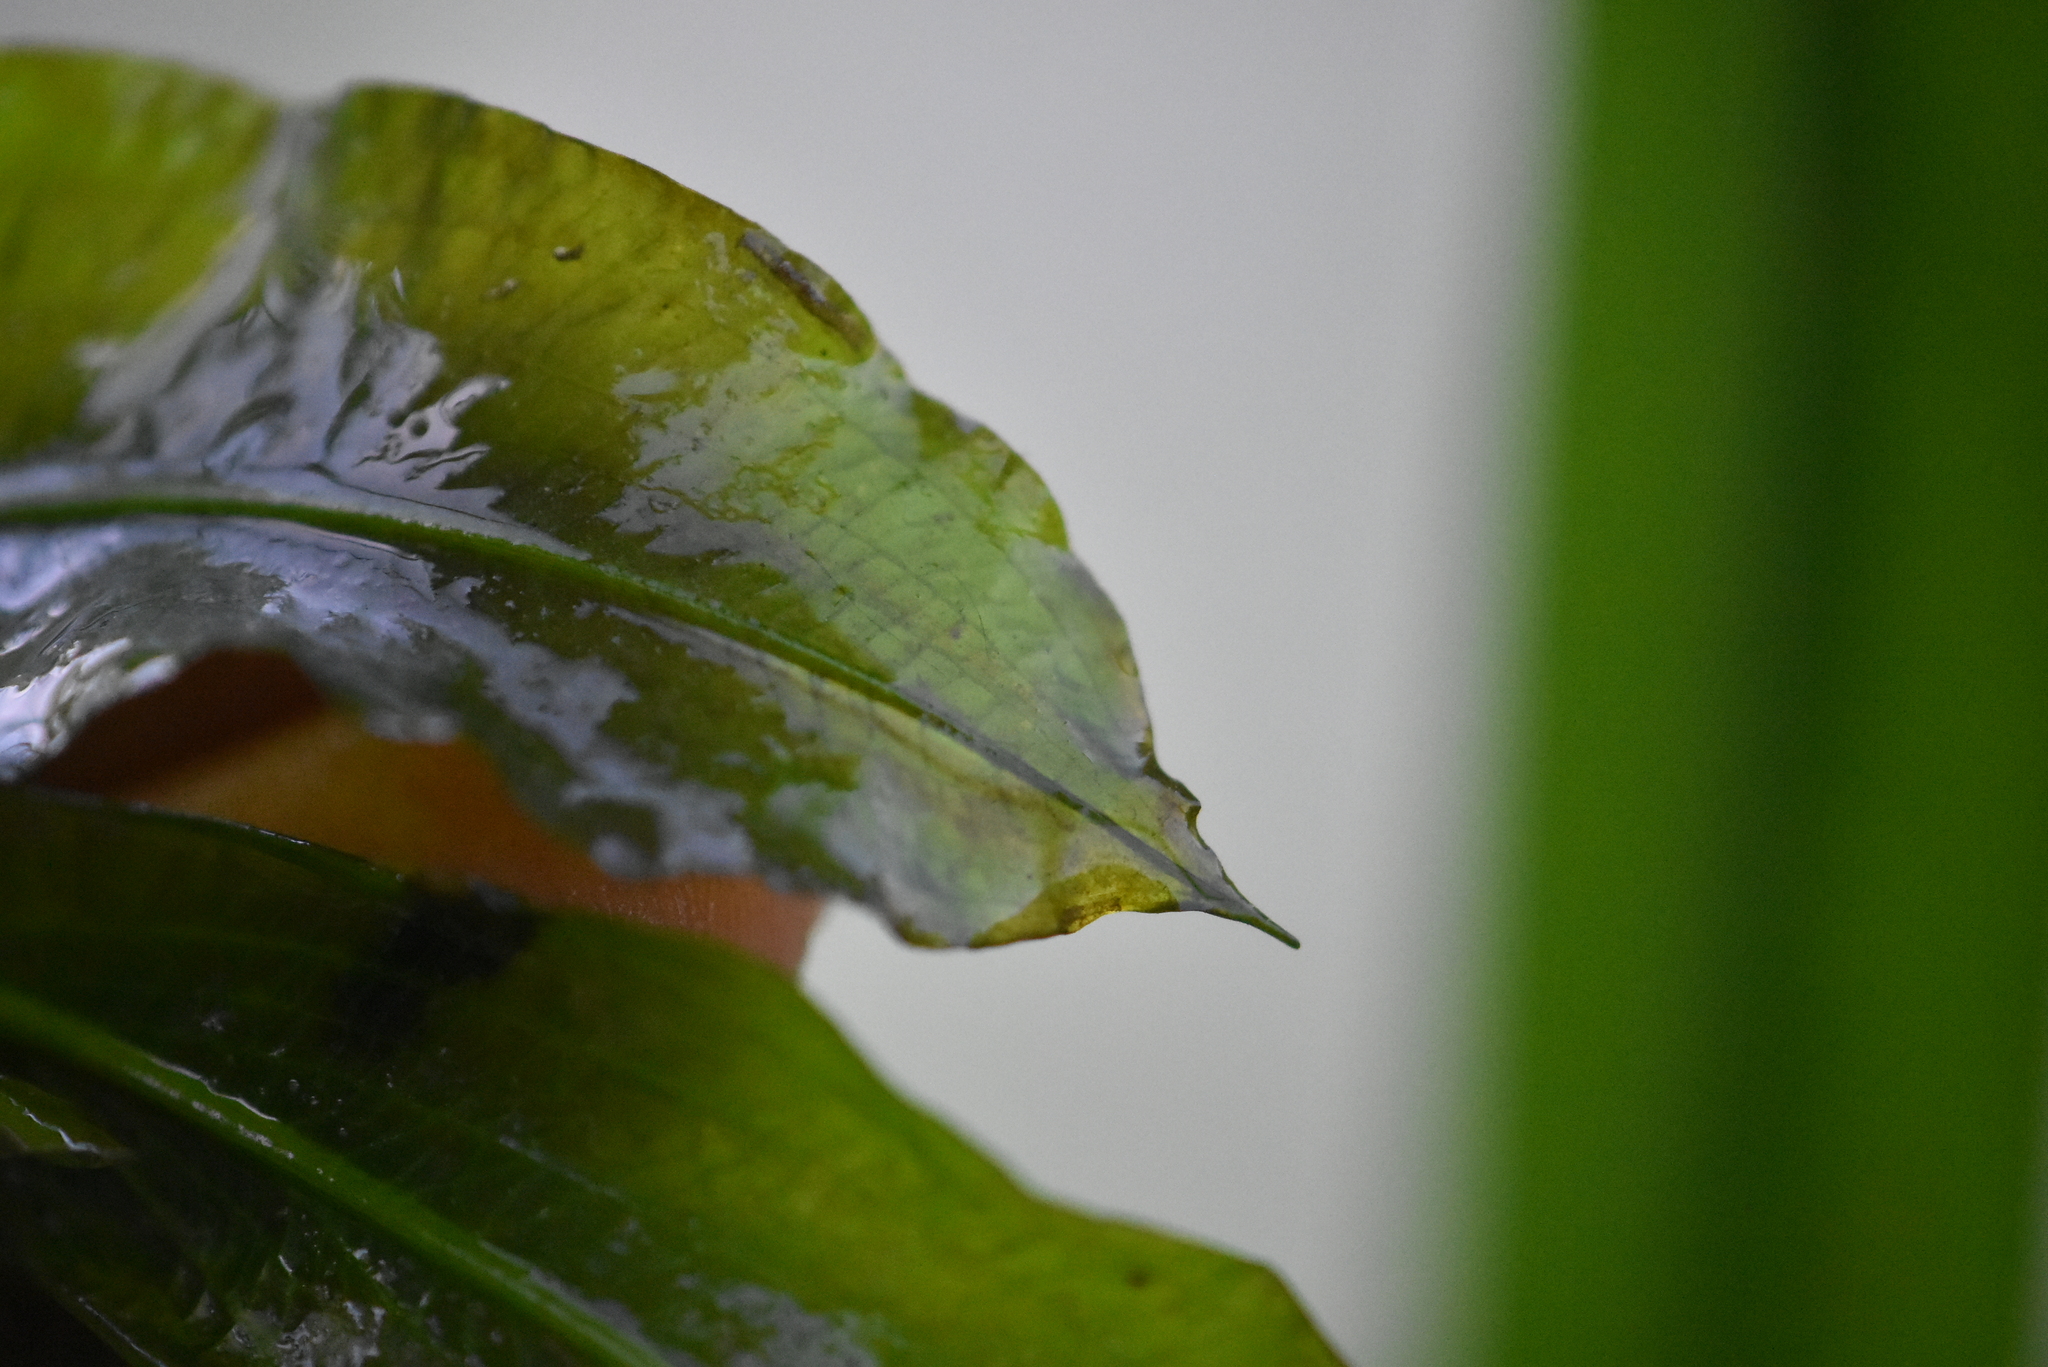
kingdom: Plantae
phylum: Tracheophyta
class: Liliopsida
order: Alismatales
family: Potamogetonaceae
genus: Potamogeton
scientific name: Potamogeton lucens
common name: Shining pondweed
